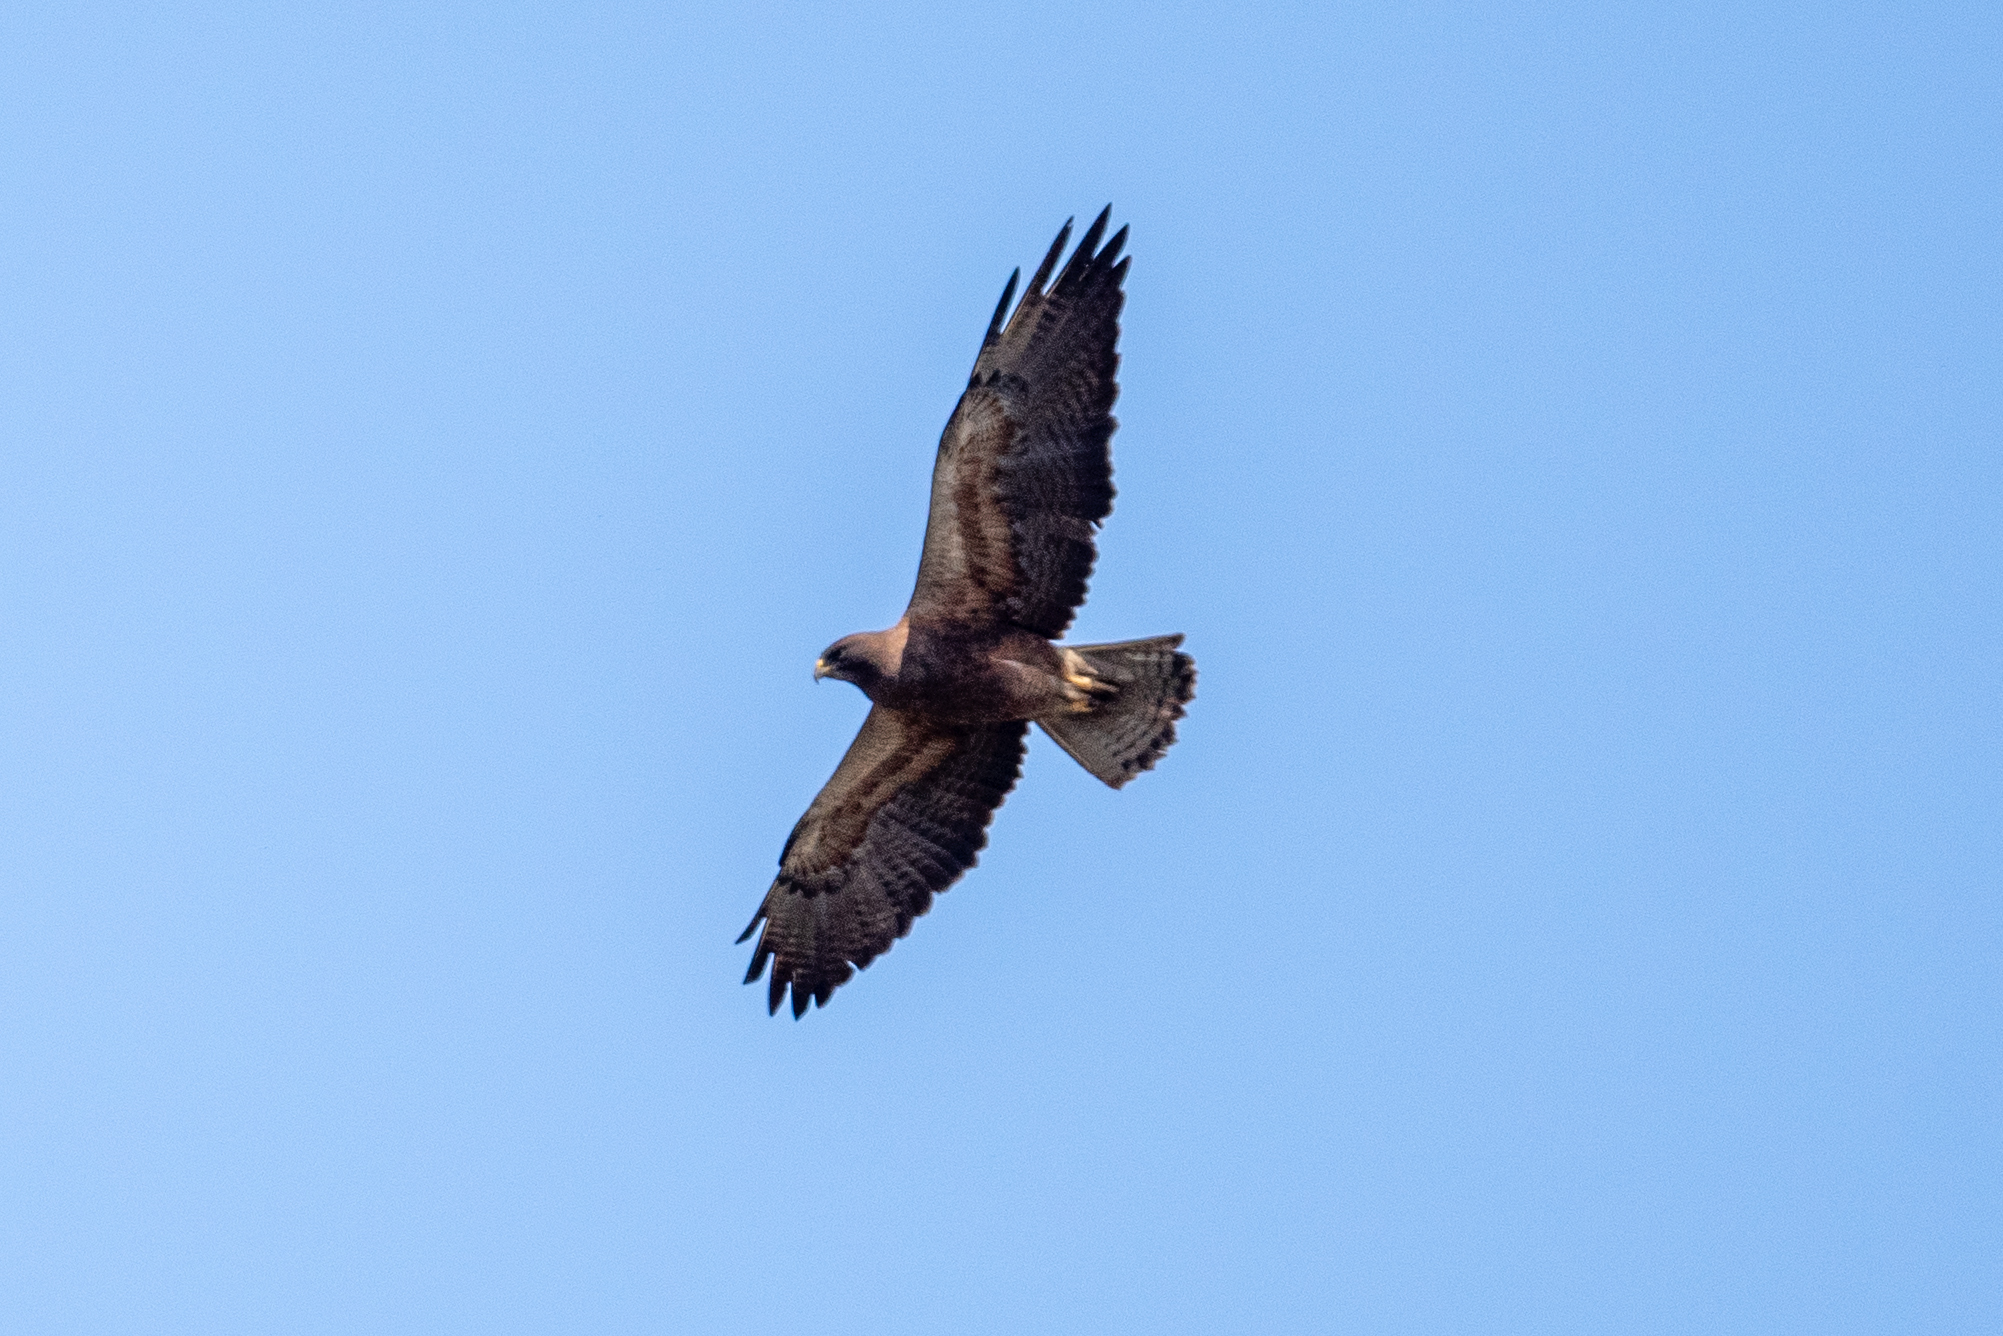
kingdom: Animalia
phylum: Chordata
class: Aves
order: Accipitriformes
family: Accipitridae
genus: Buteo
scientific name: Buteo swainsoni
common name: Swainson's hawk
